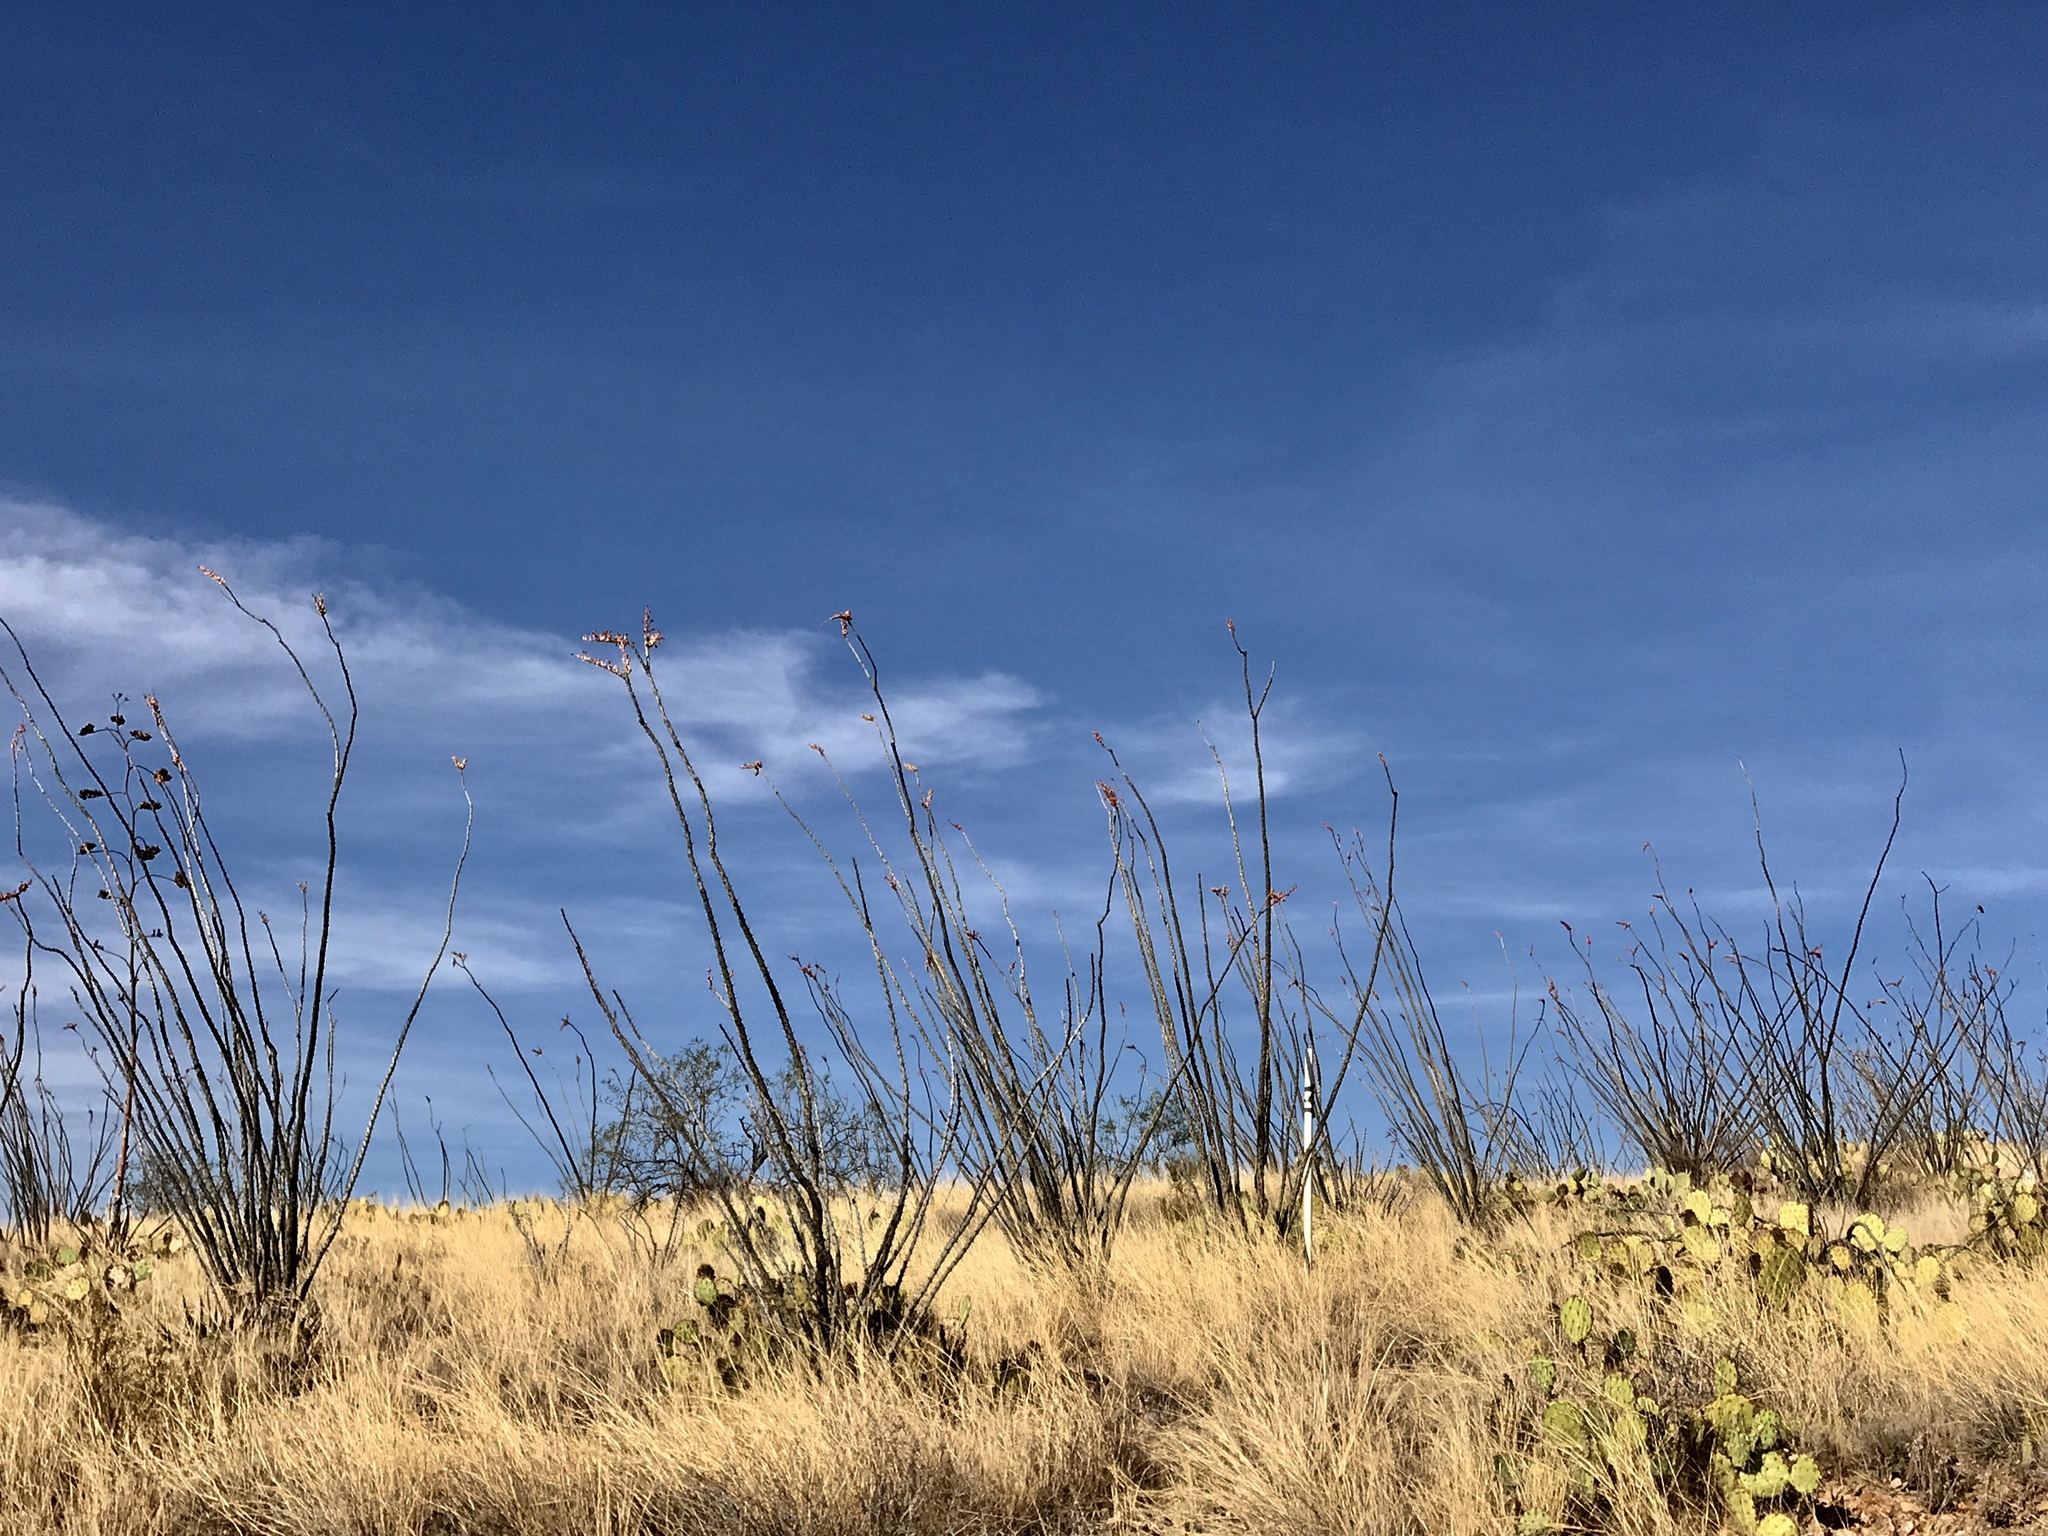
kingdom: Plantae
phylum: Tracheophyta
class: Magnoliopsida
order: Ericales
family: Fouquieriaceae
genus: Fouquieria
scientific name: Fouquieria splendens
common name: Vine-cactus
